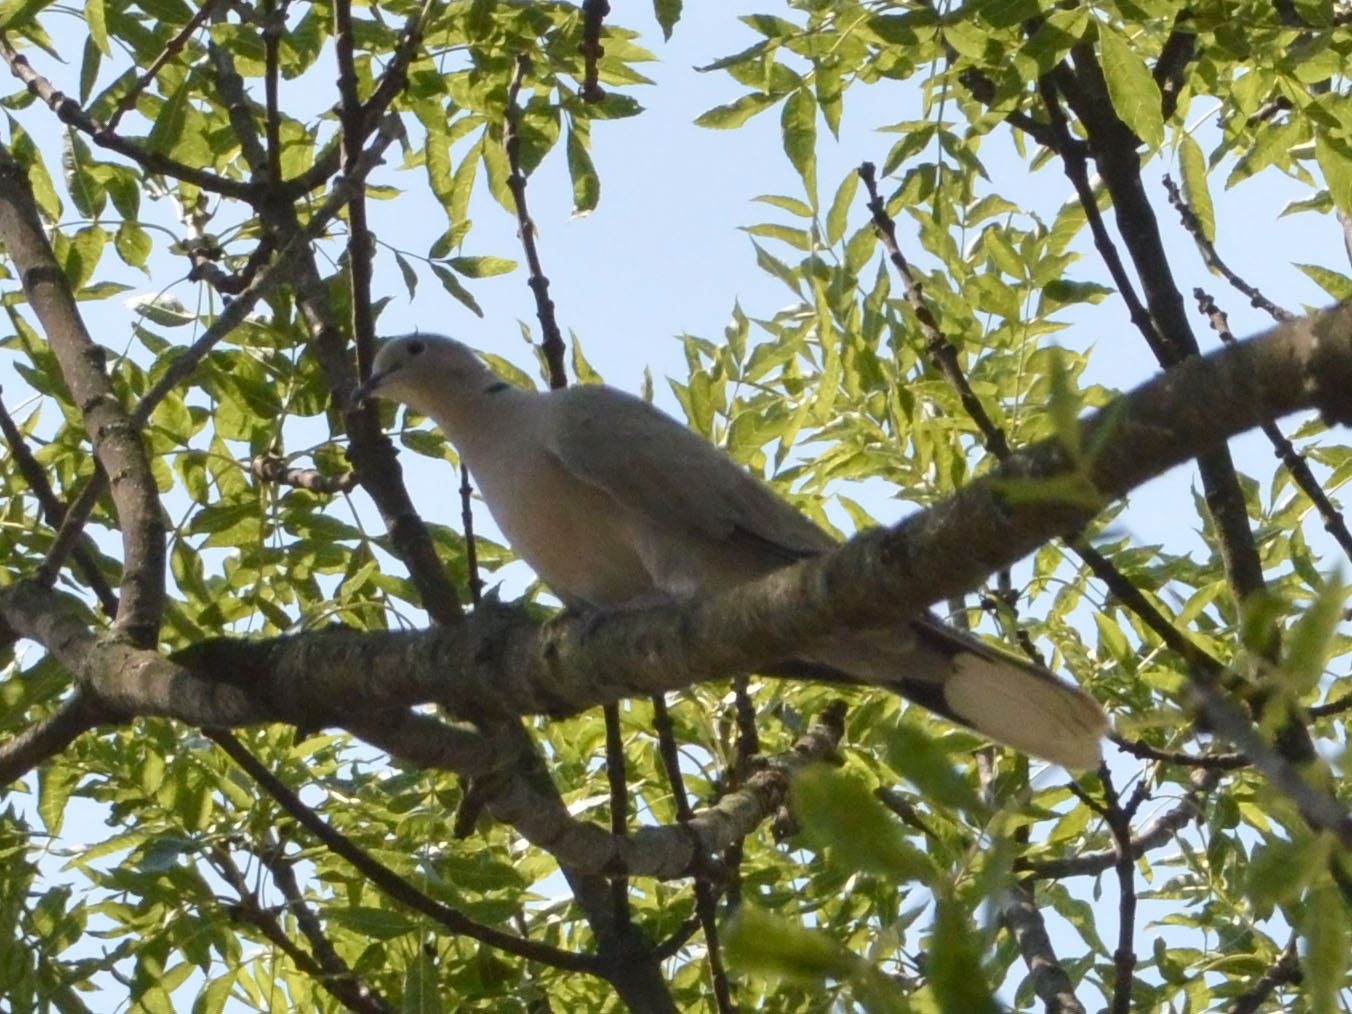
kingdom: Animalia
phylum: Chordata
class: Aves
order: Columbiformes
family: Columbidae
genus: Streptopelia
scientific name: Streptopelia decaocto
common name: Eurasian collared dove
